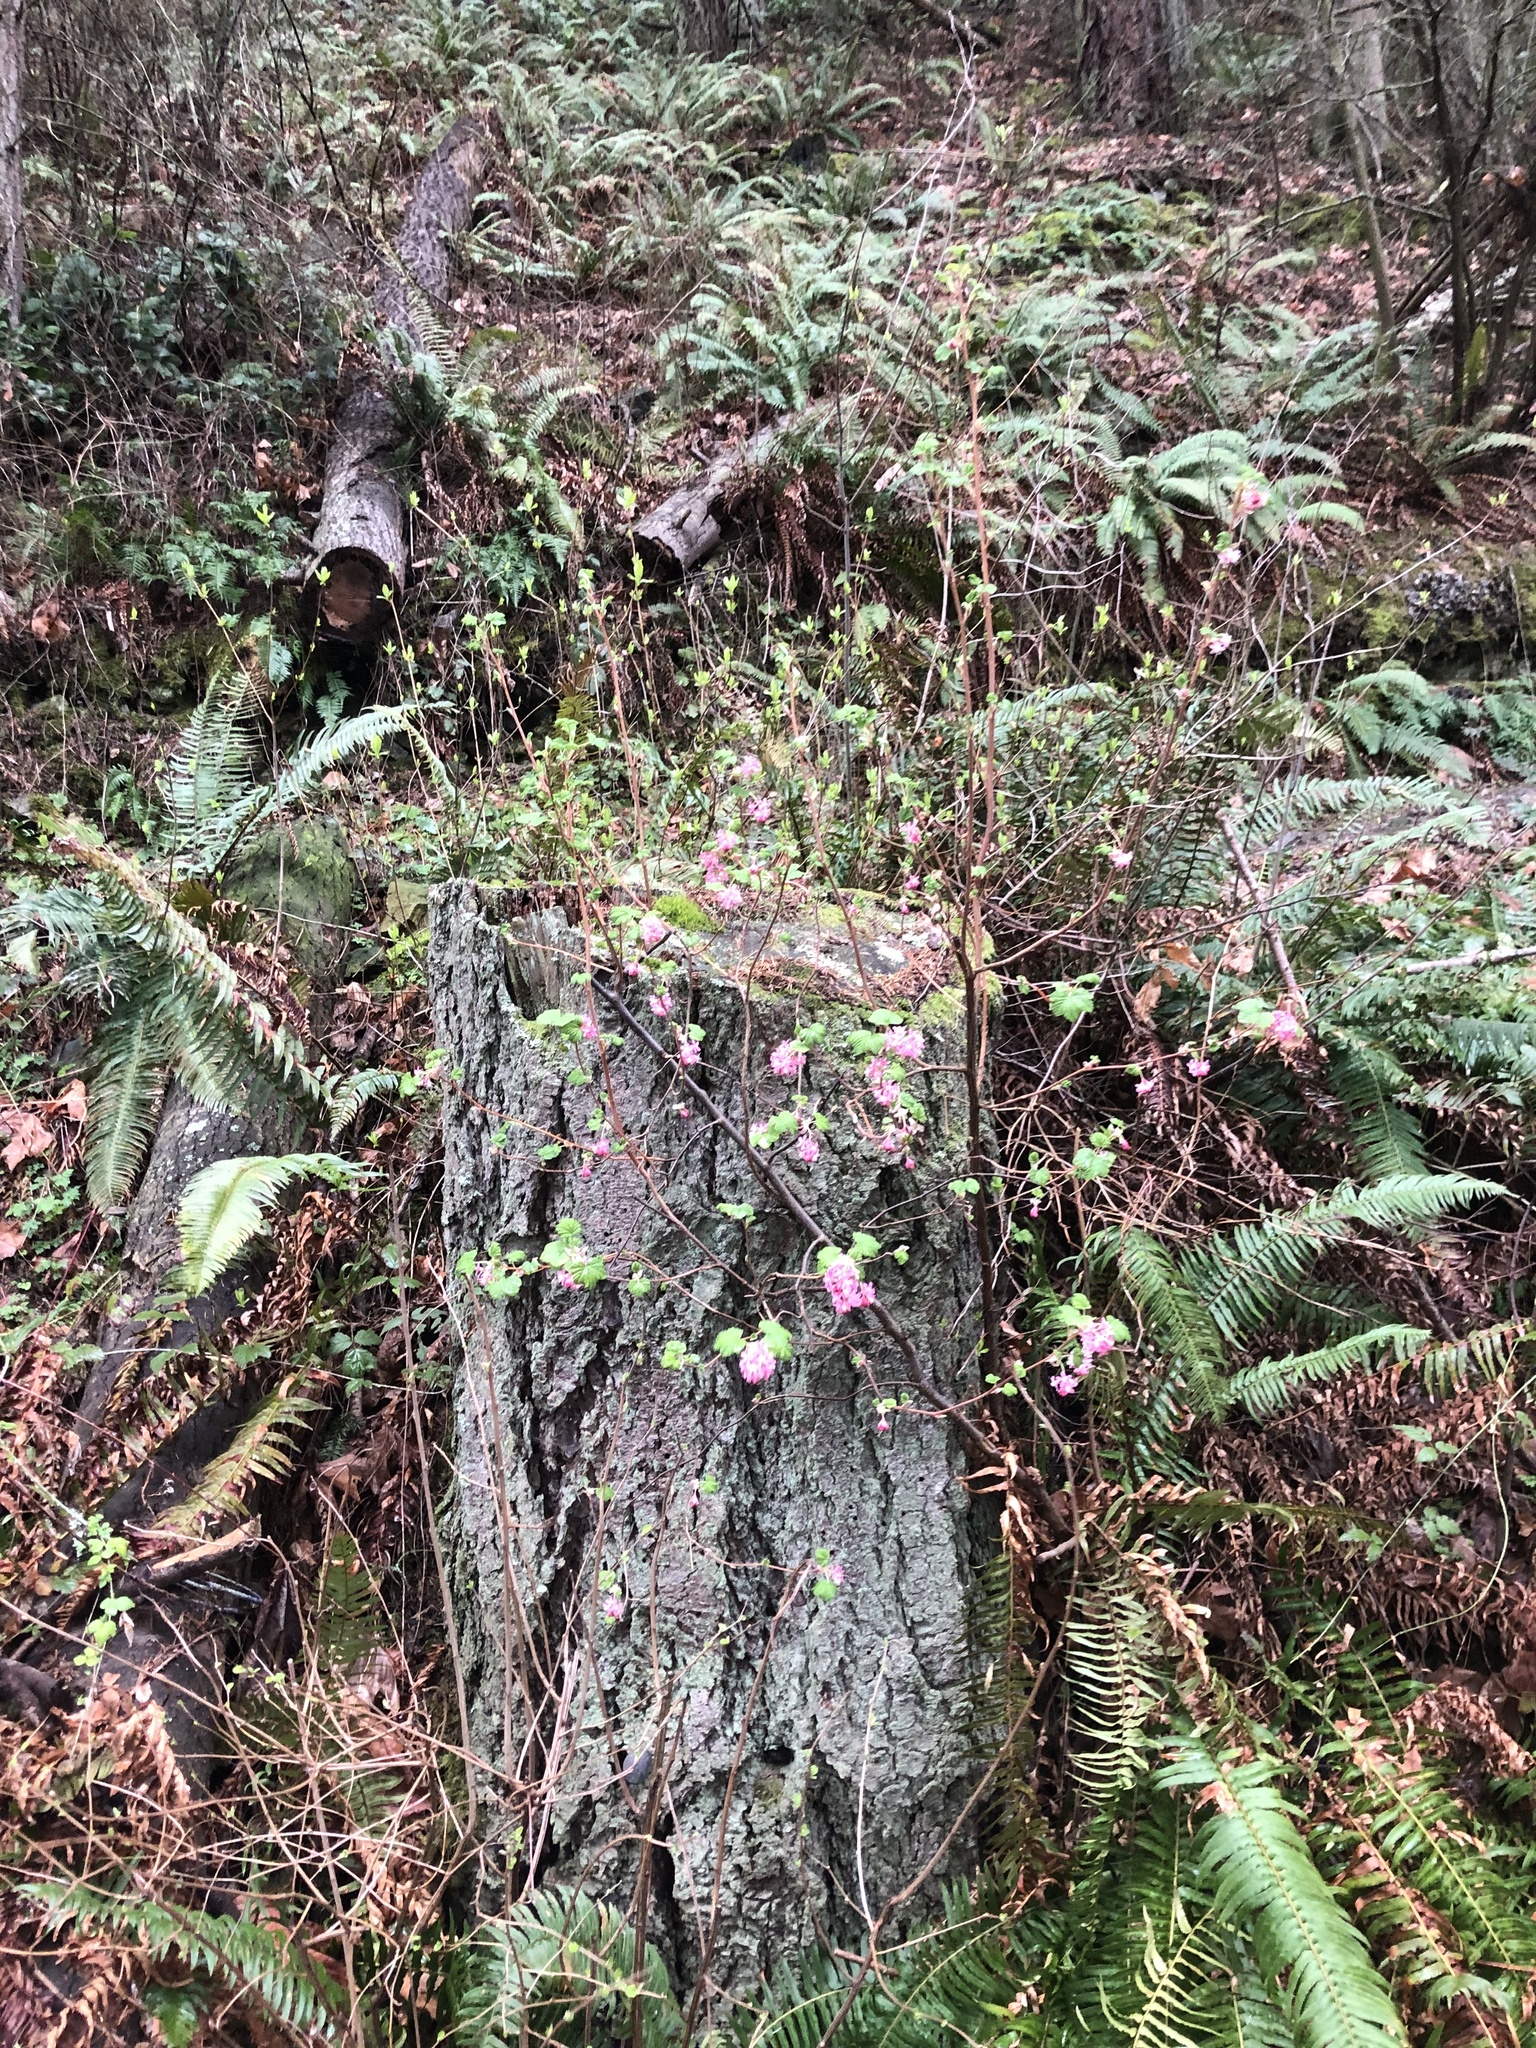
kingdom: Plantae
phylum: Tracheophyta
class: Magnoliopsida
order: Saxifragales
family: Grossulariaceae
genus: Ribes
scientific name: Ribes sanguineum
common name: Flowering currant
